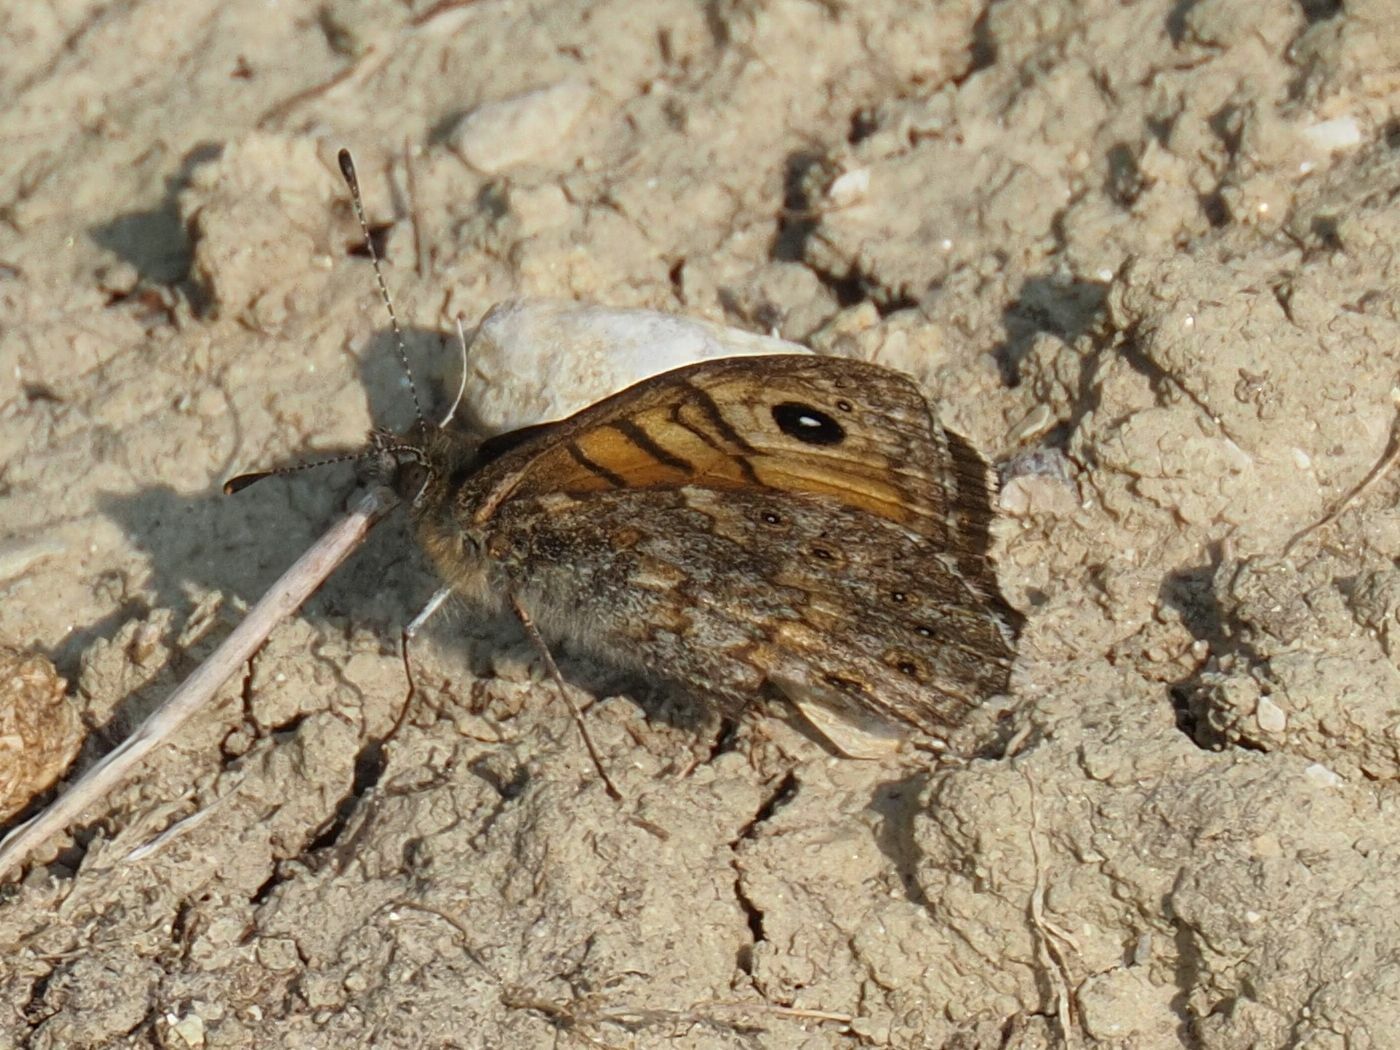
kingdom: Animalia
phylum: Arthropoda
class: Insecta
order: Lepidoptera
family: Nymphalidae
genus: Pararge
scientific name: Pararge Lasiommata megera
